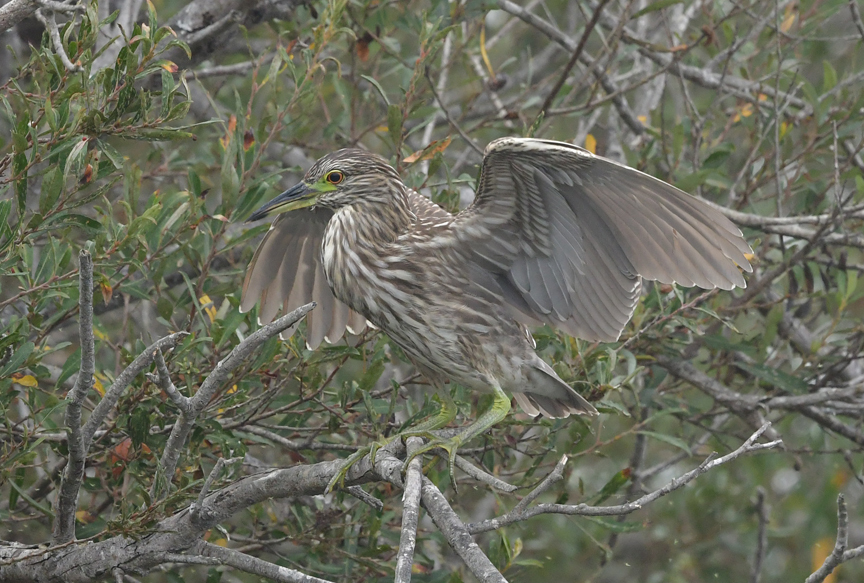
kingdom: Animalia
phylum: Chordata
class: Aves
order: Pelecaniformes
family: Ardeidae
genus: Nycticorax
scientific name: Nycticorax nycticorax
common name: Black-crowned night heron
